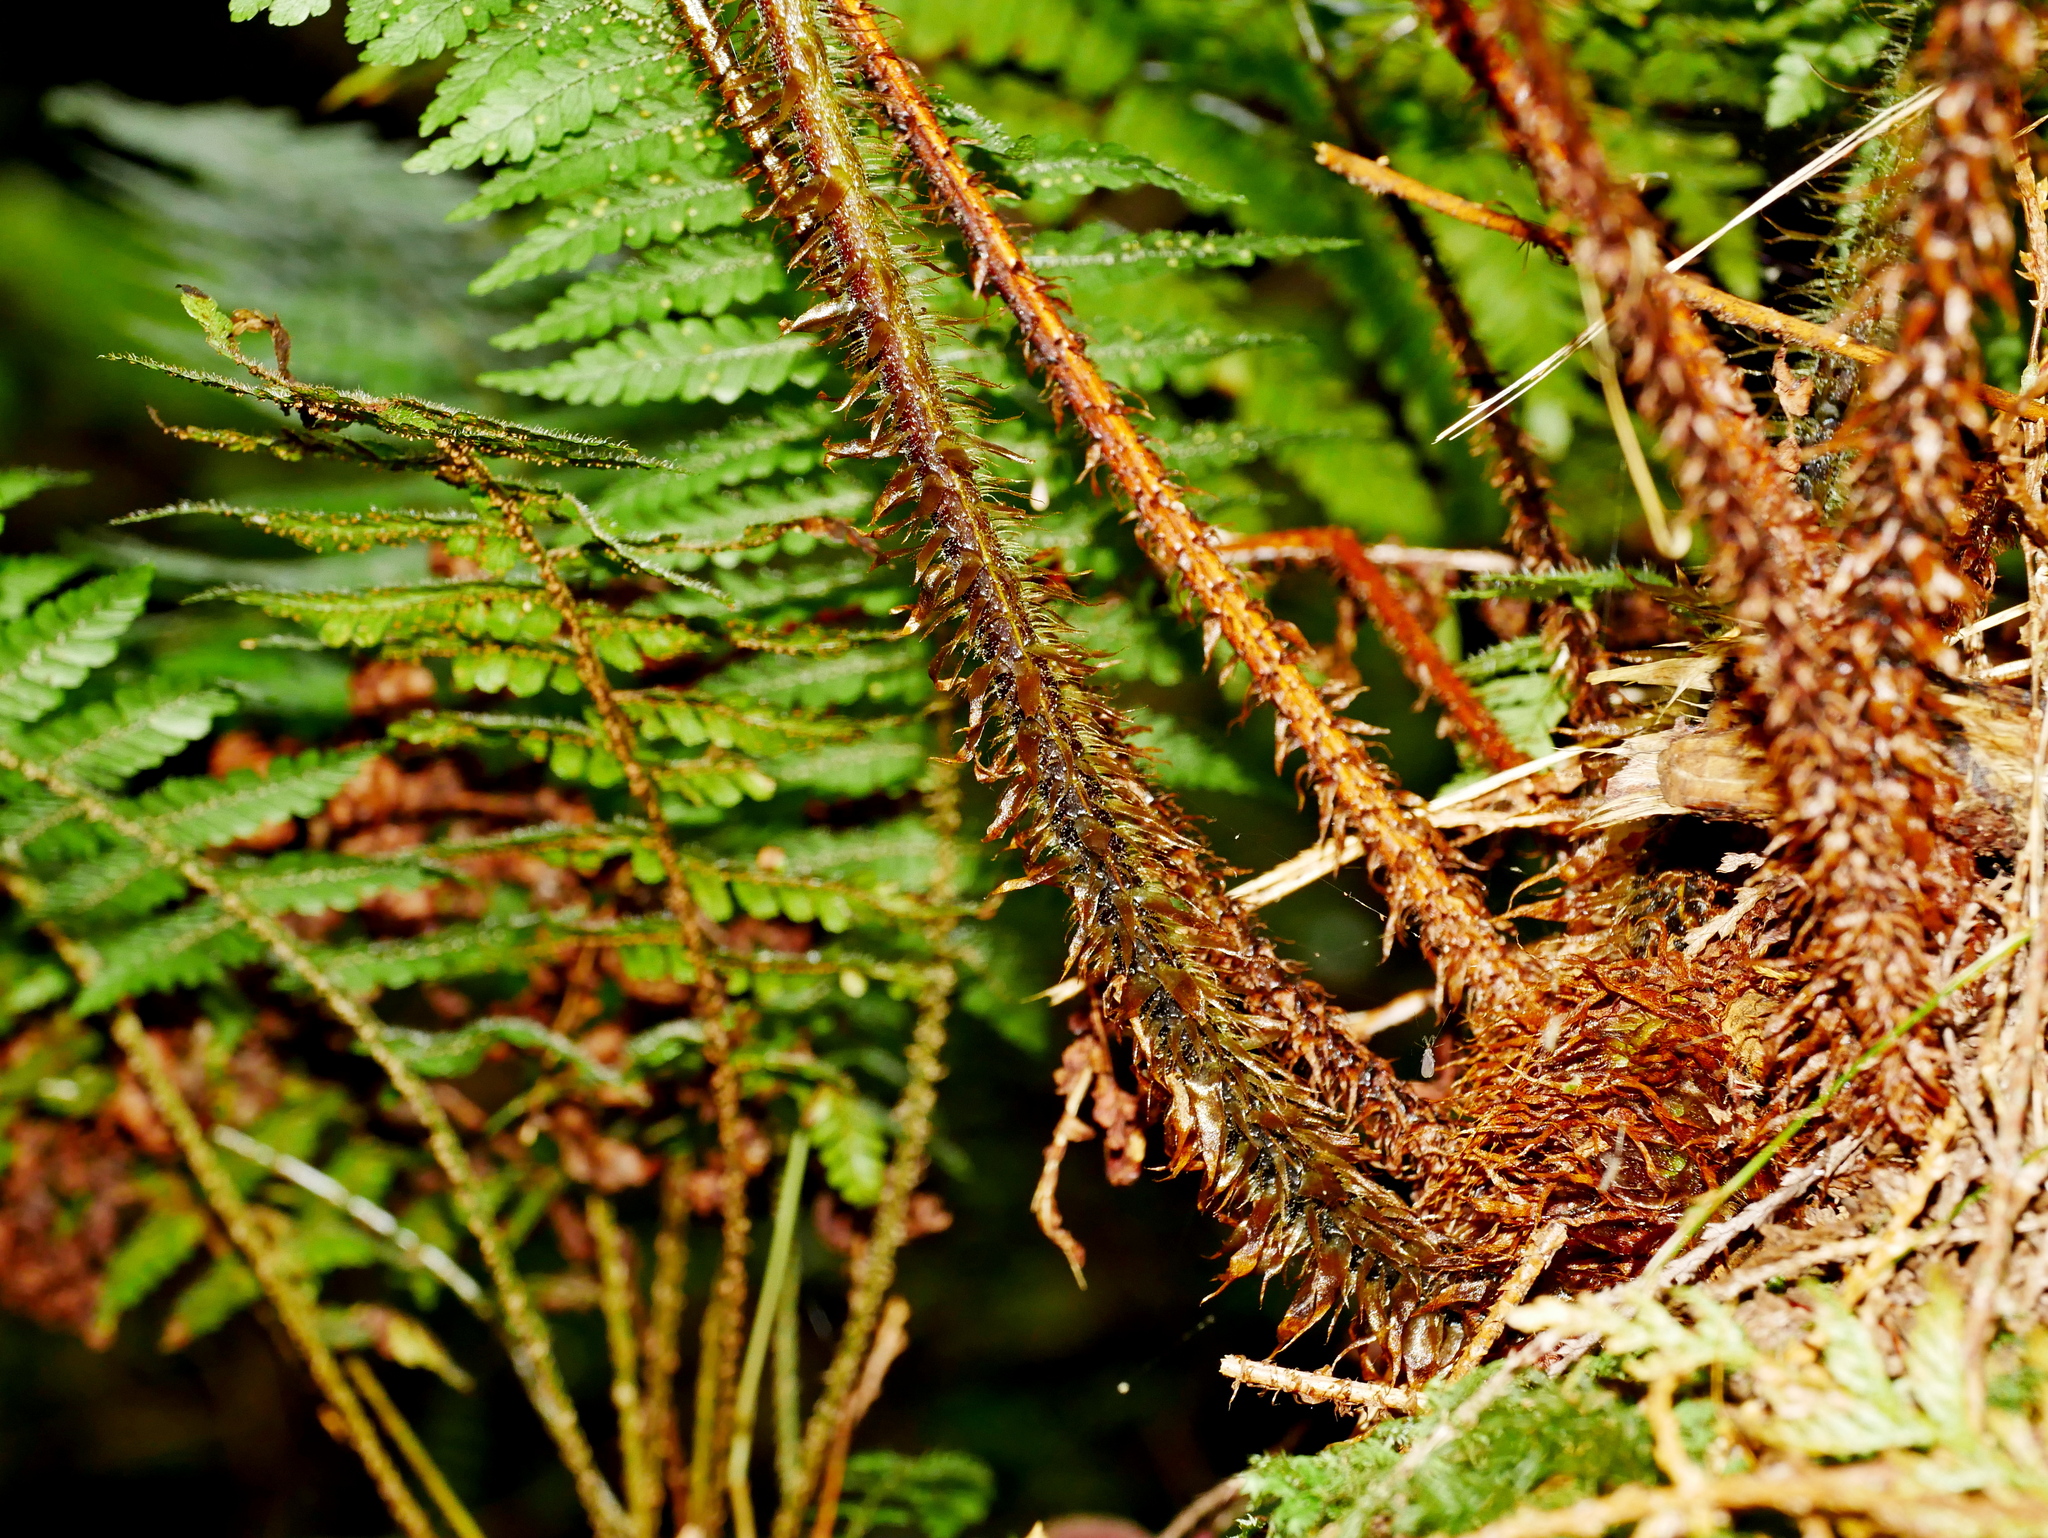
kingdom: Plantae
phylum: Tracheophyta
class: Polypodiopsida
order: Polypodiales
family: Dryopteridaceae
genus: Dryopteris
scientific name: Dryopteris hendersonii
